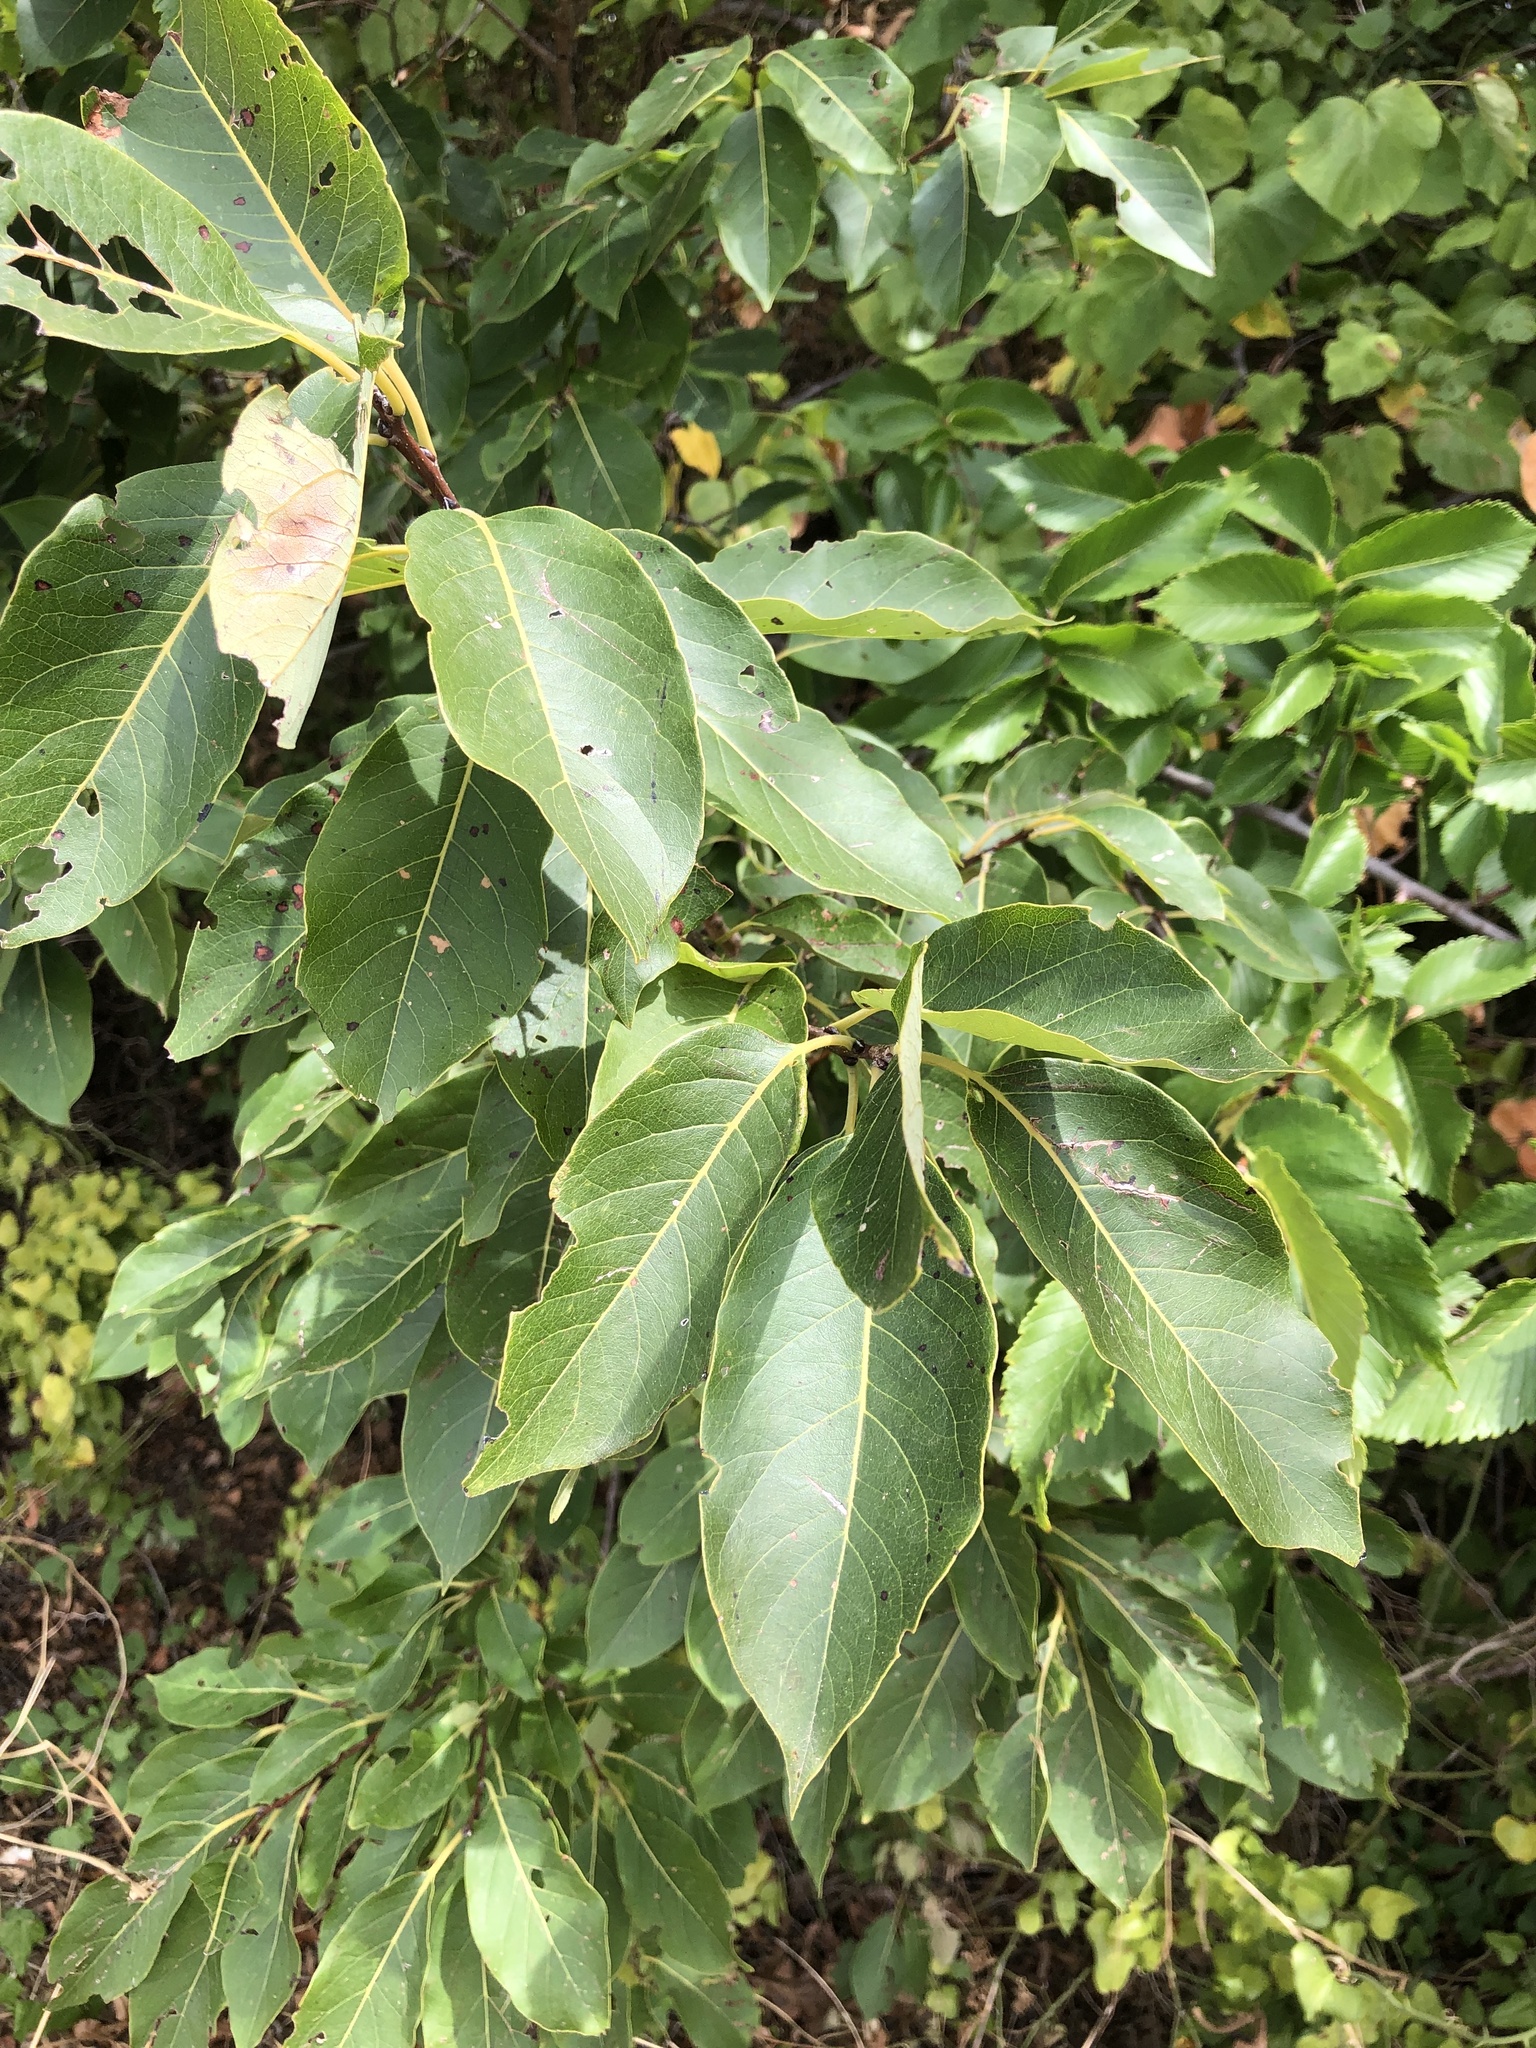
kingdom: Plantae
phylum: Tracheophyta
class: Magnoliopsida
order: Ericales
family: Ebenaceae
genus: Diospyros
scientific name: Diospyros virginiana
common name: Persimmon
